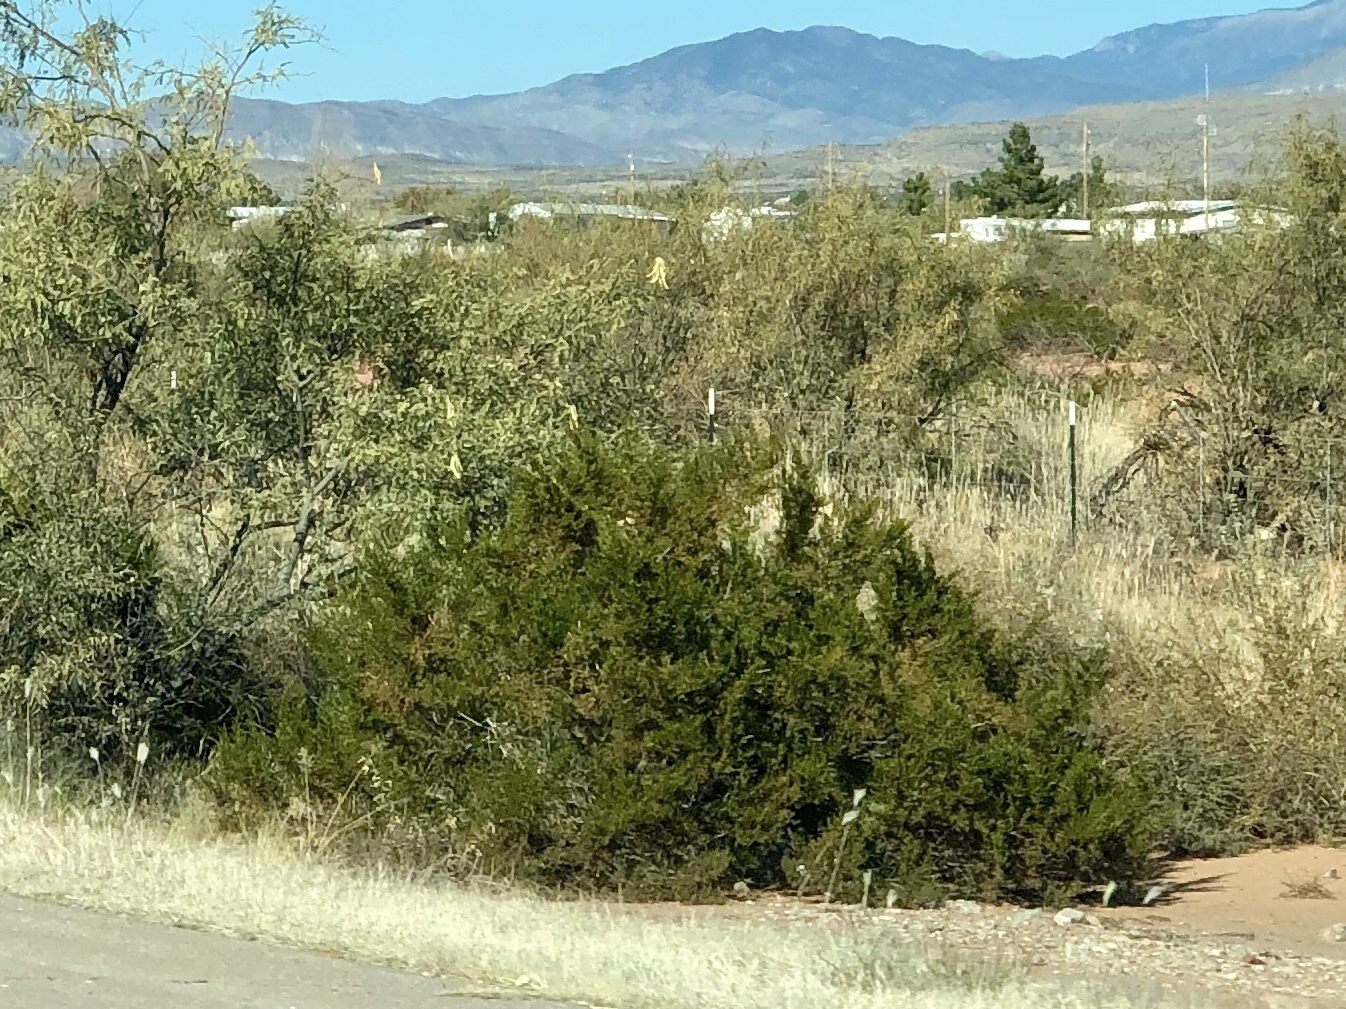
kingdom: Plantae
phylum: Tracheophyta
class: Magnoliopsida
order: Zygophyllales
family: Zygophyllaceae
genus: Larrea
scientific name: Larrea tridentata
